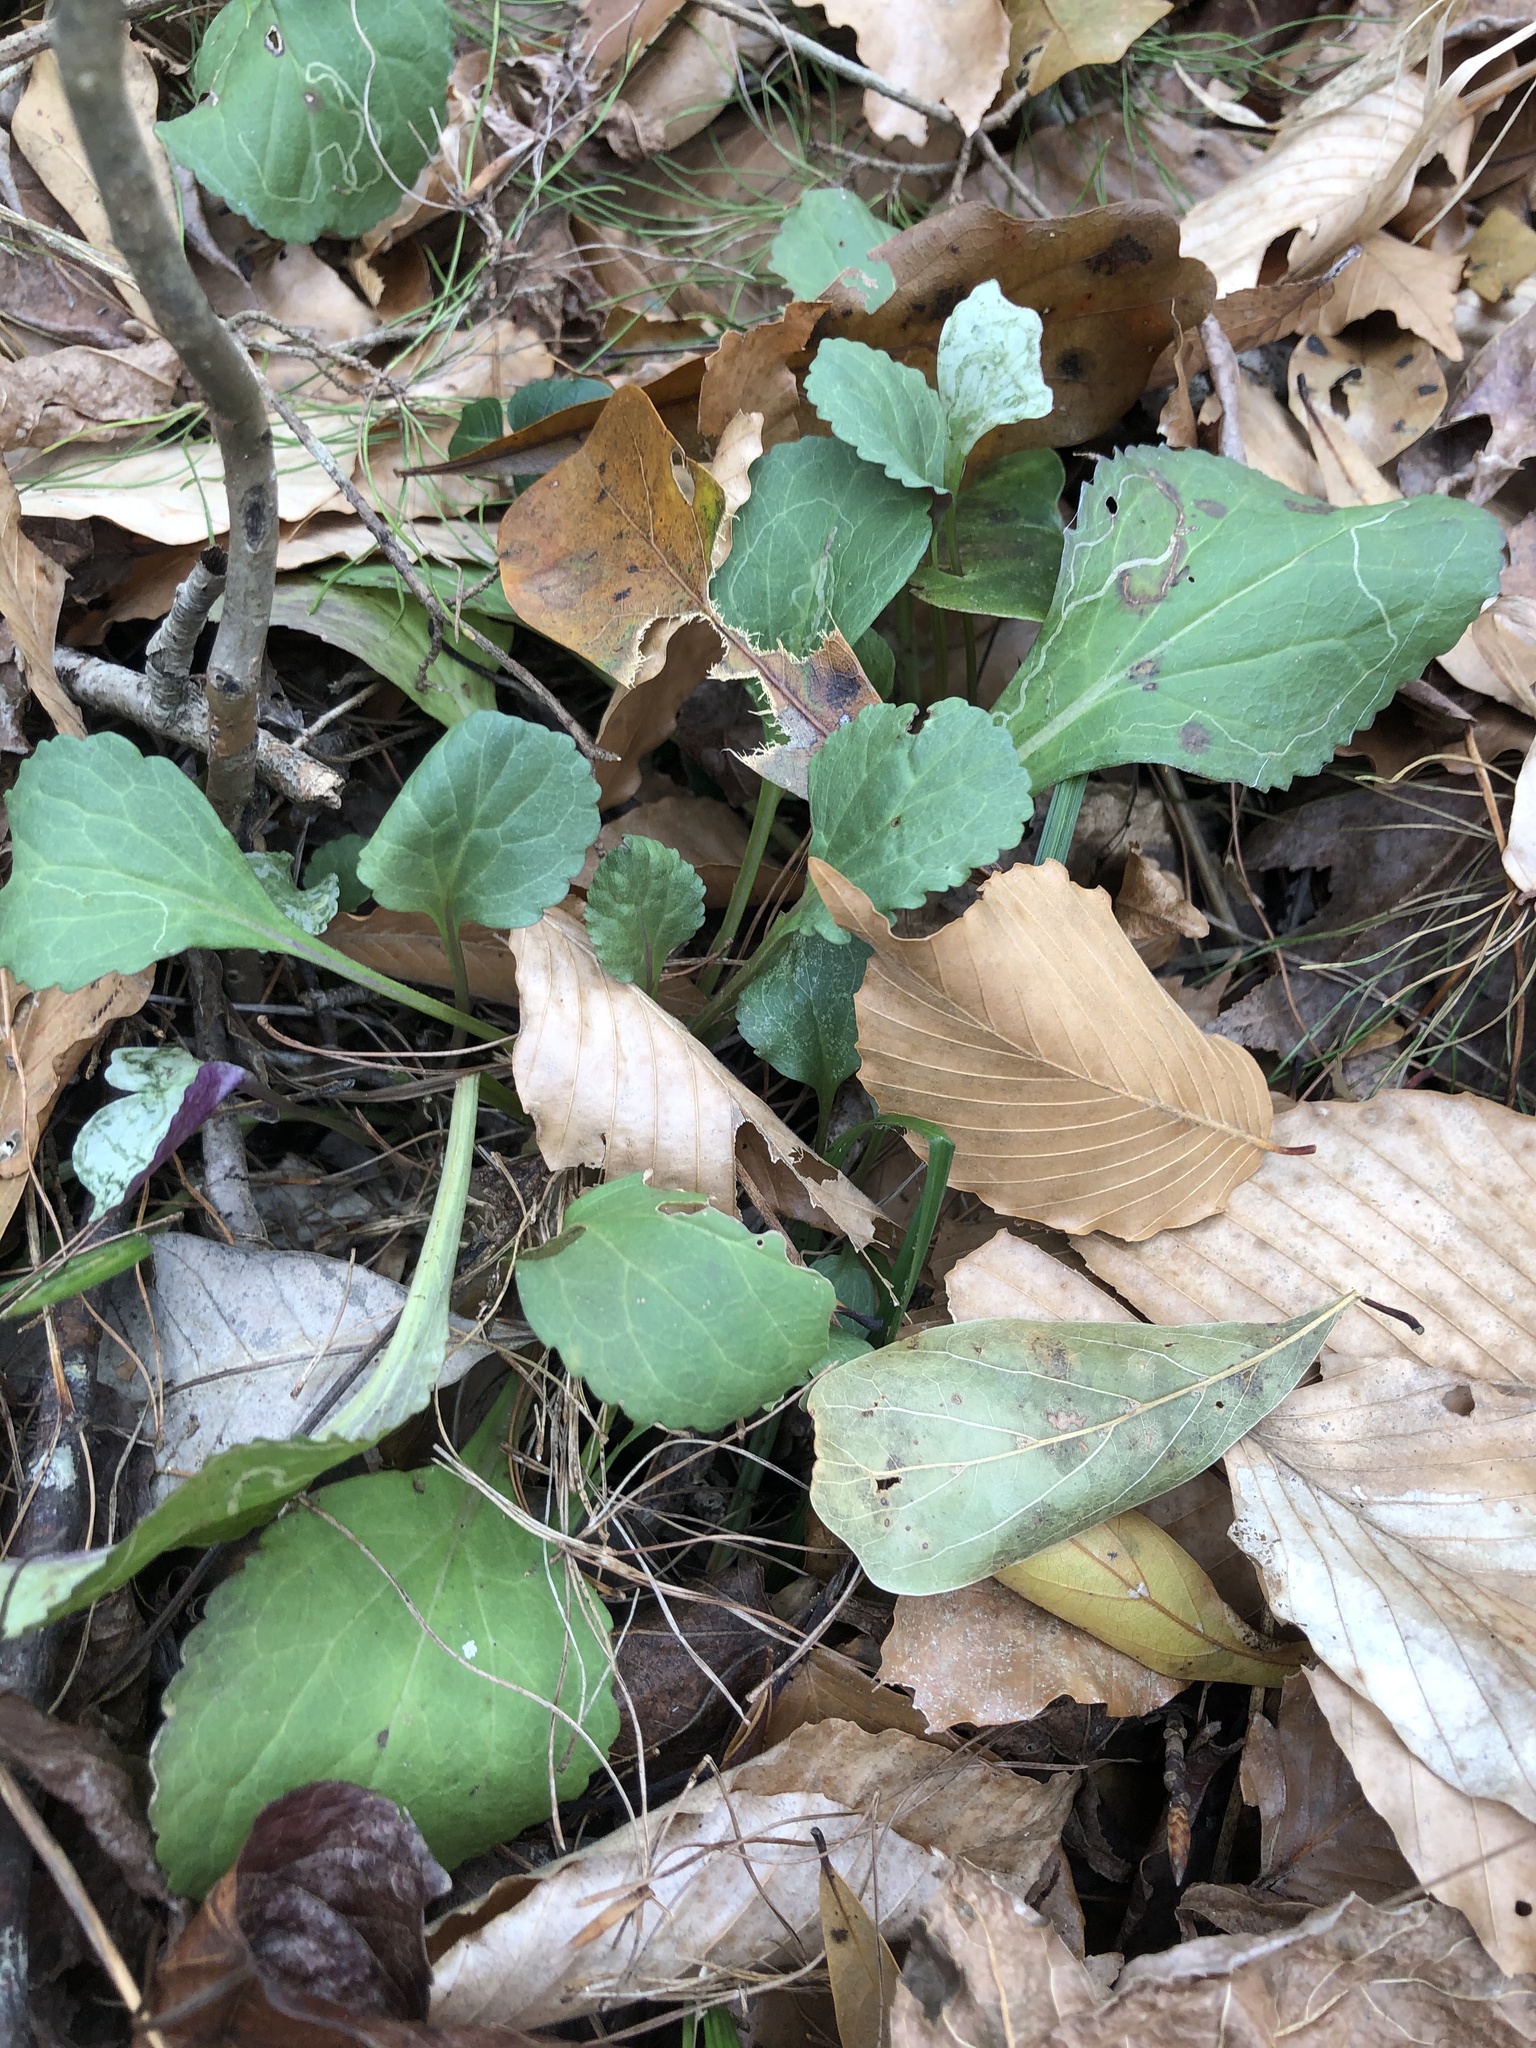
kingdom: Plantae
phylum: Tracheophyta
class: Magnoliopsida
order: Asterales
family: Asteraceae
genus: Packera
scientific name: Packera obovata
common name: Round-leaf ragwort
